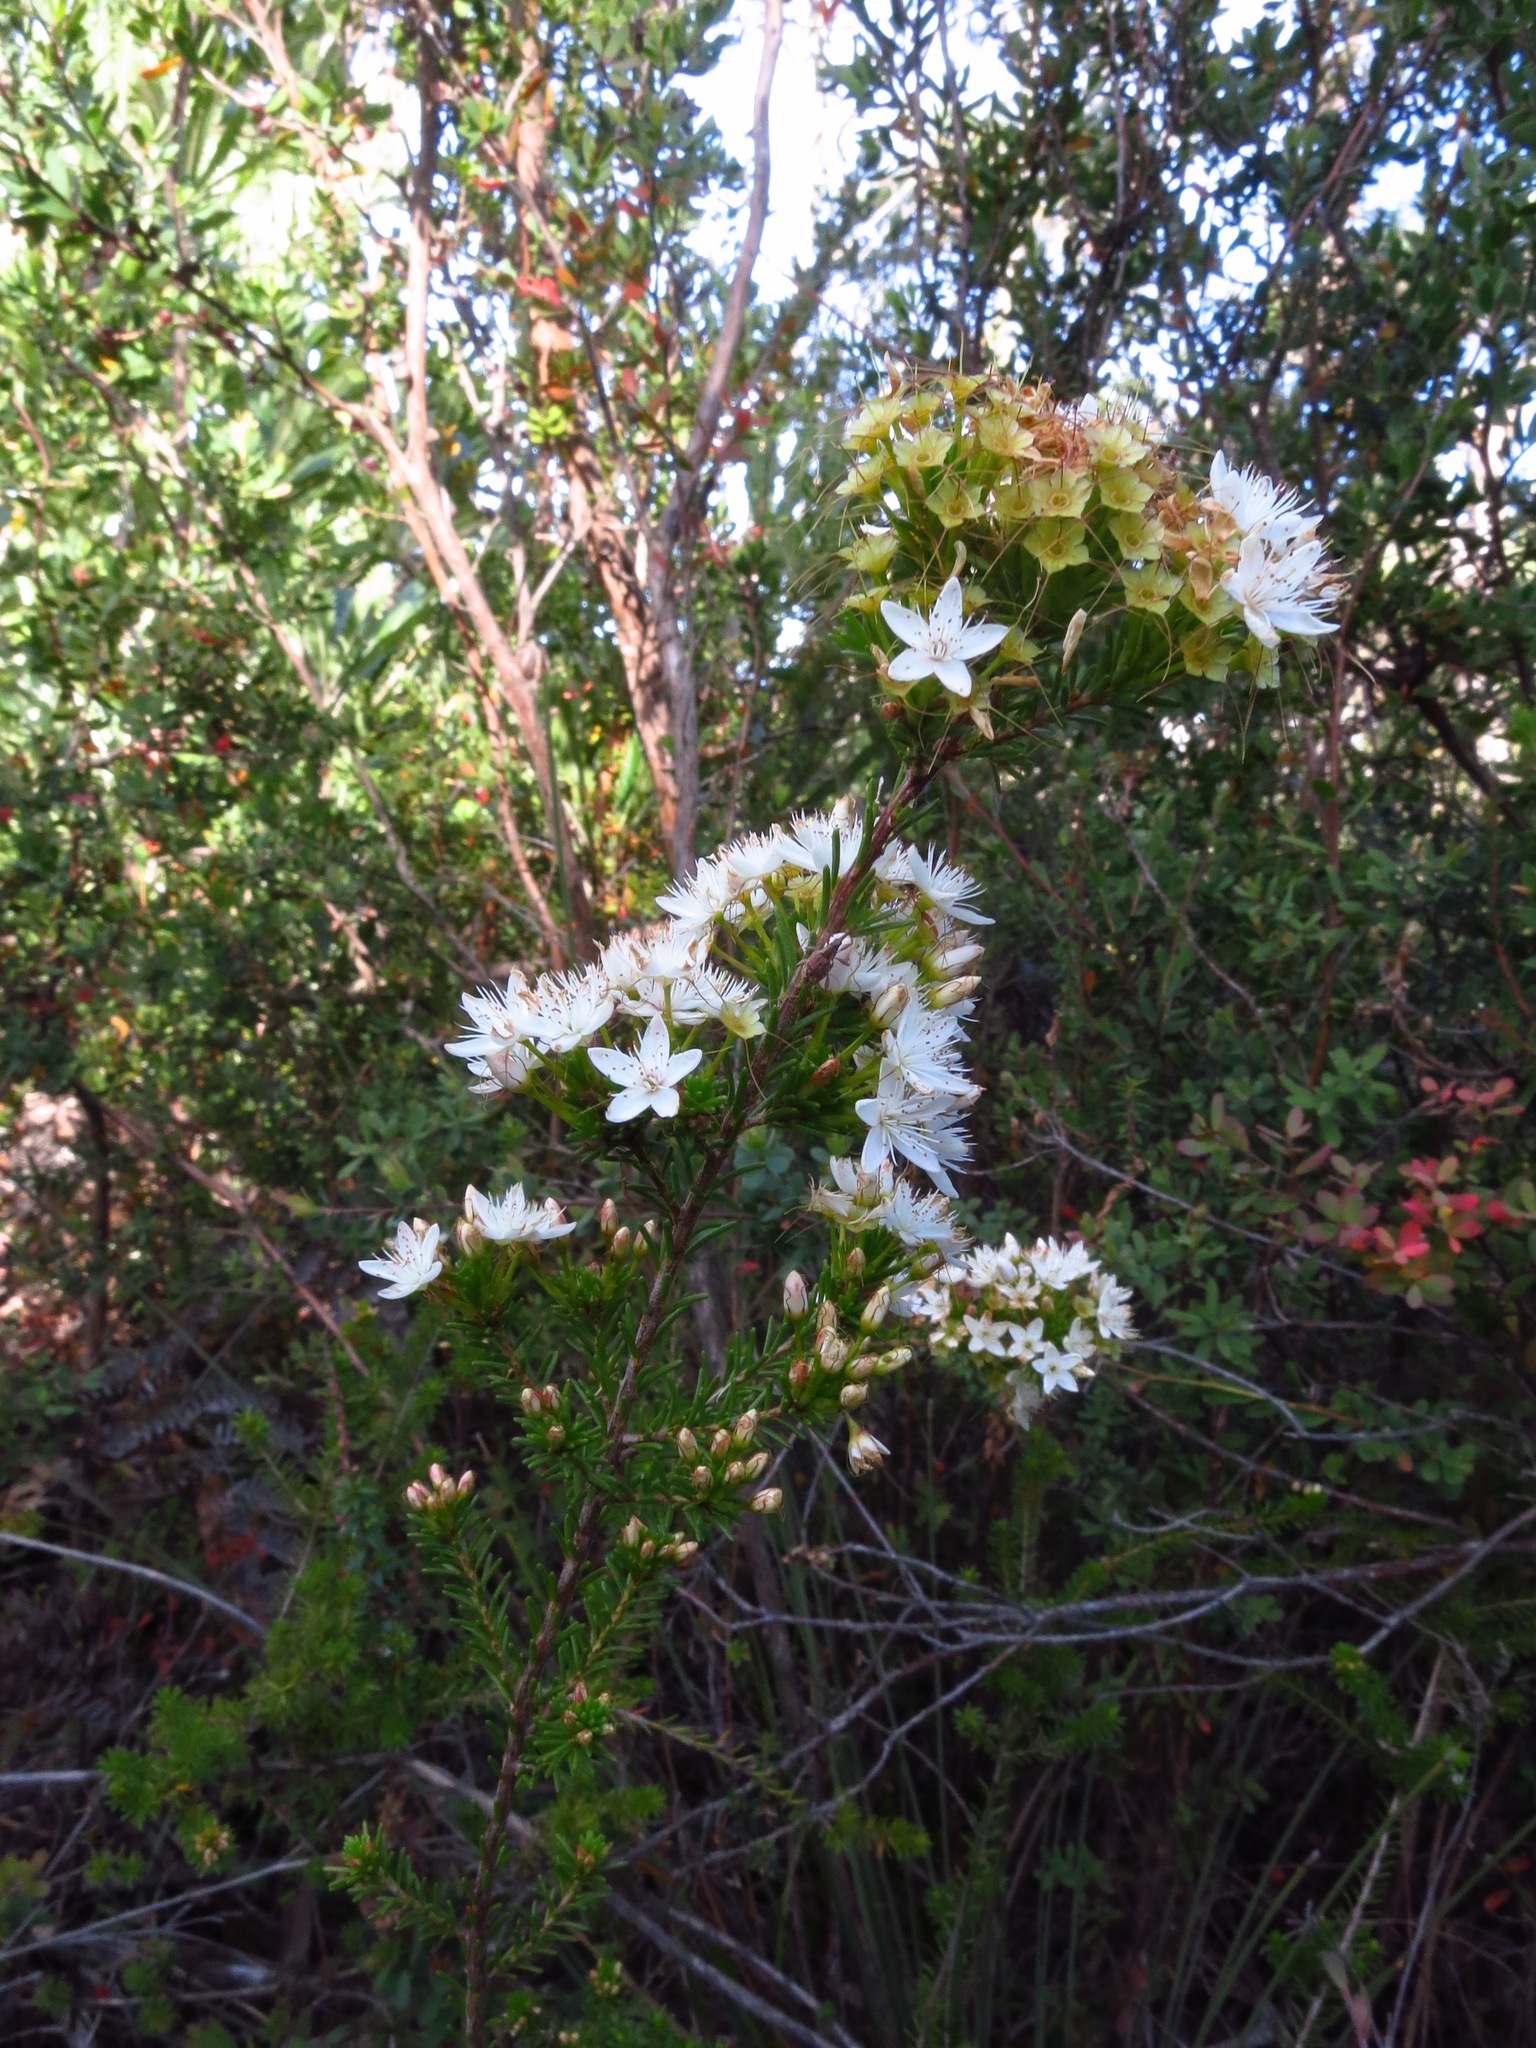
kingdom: Plantae
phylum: Tracheophyta
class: Magnoliopsida
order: Myrtales
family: Myrtaceae
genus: Calytrix
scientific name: Calytrix tetragona
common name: Common fringe myrtle
